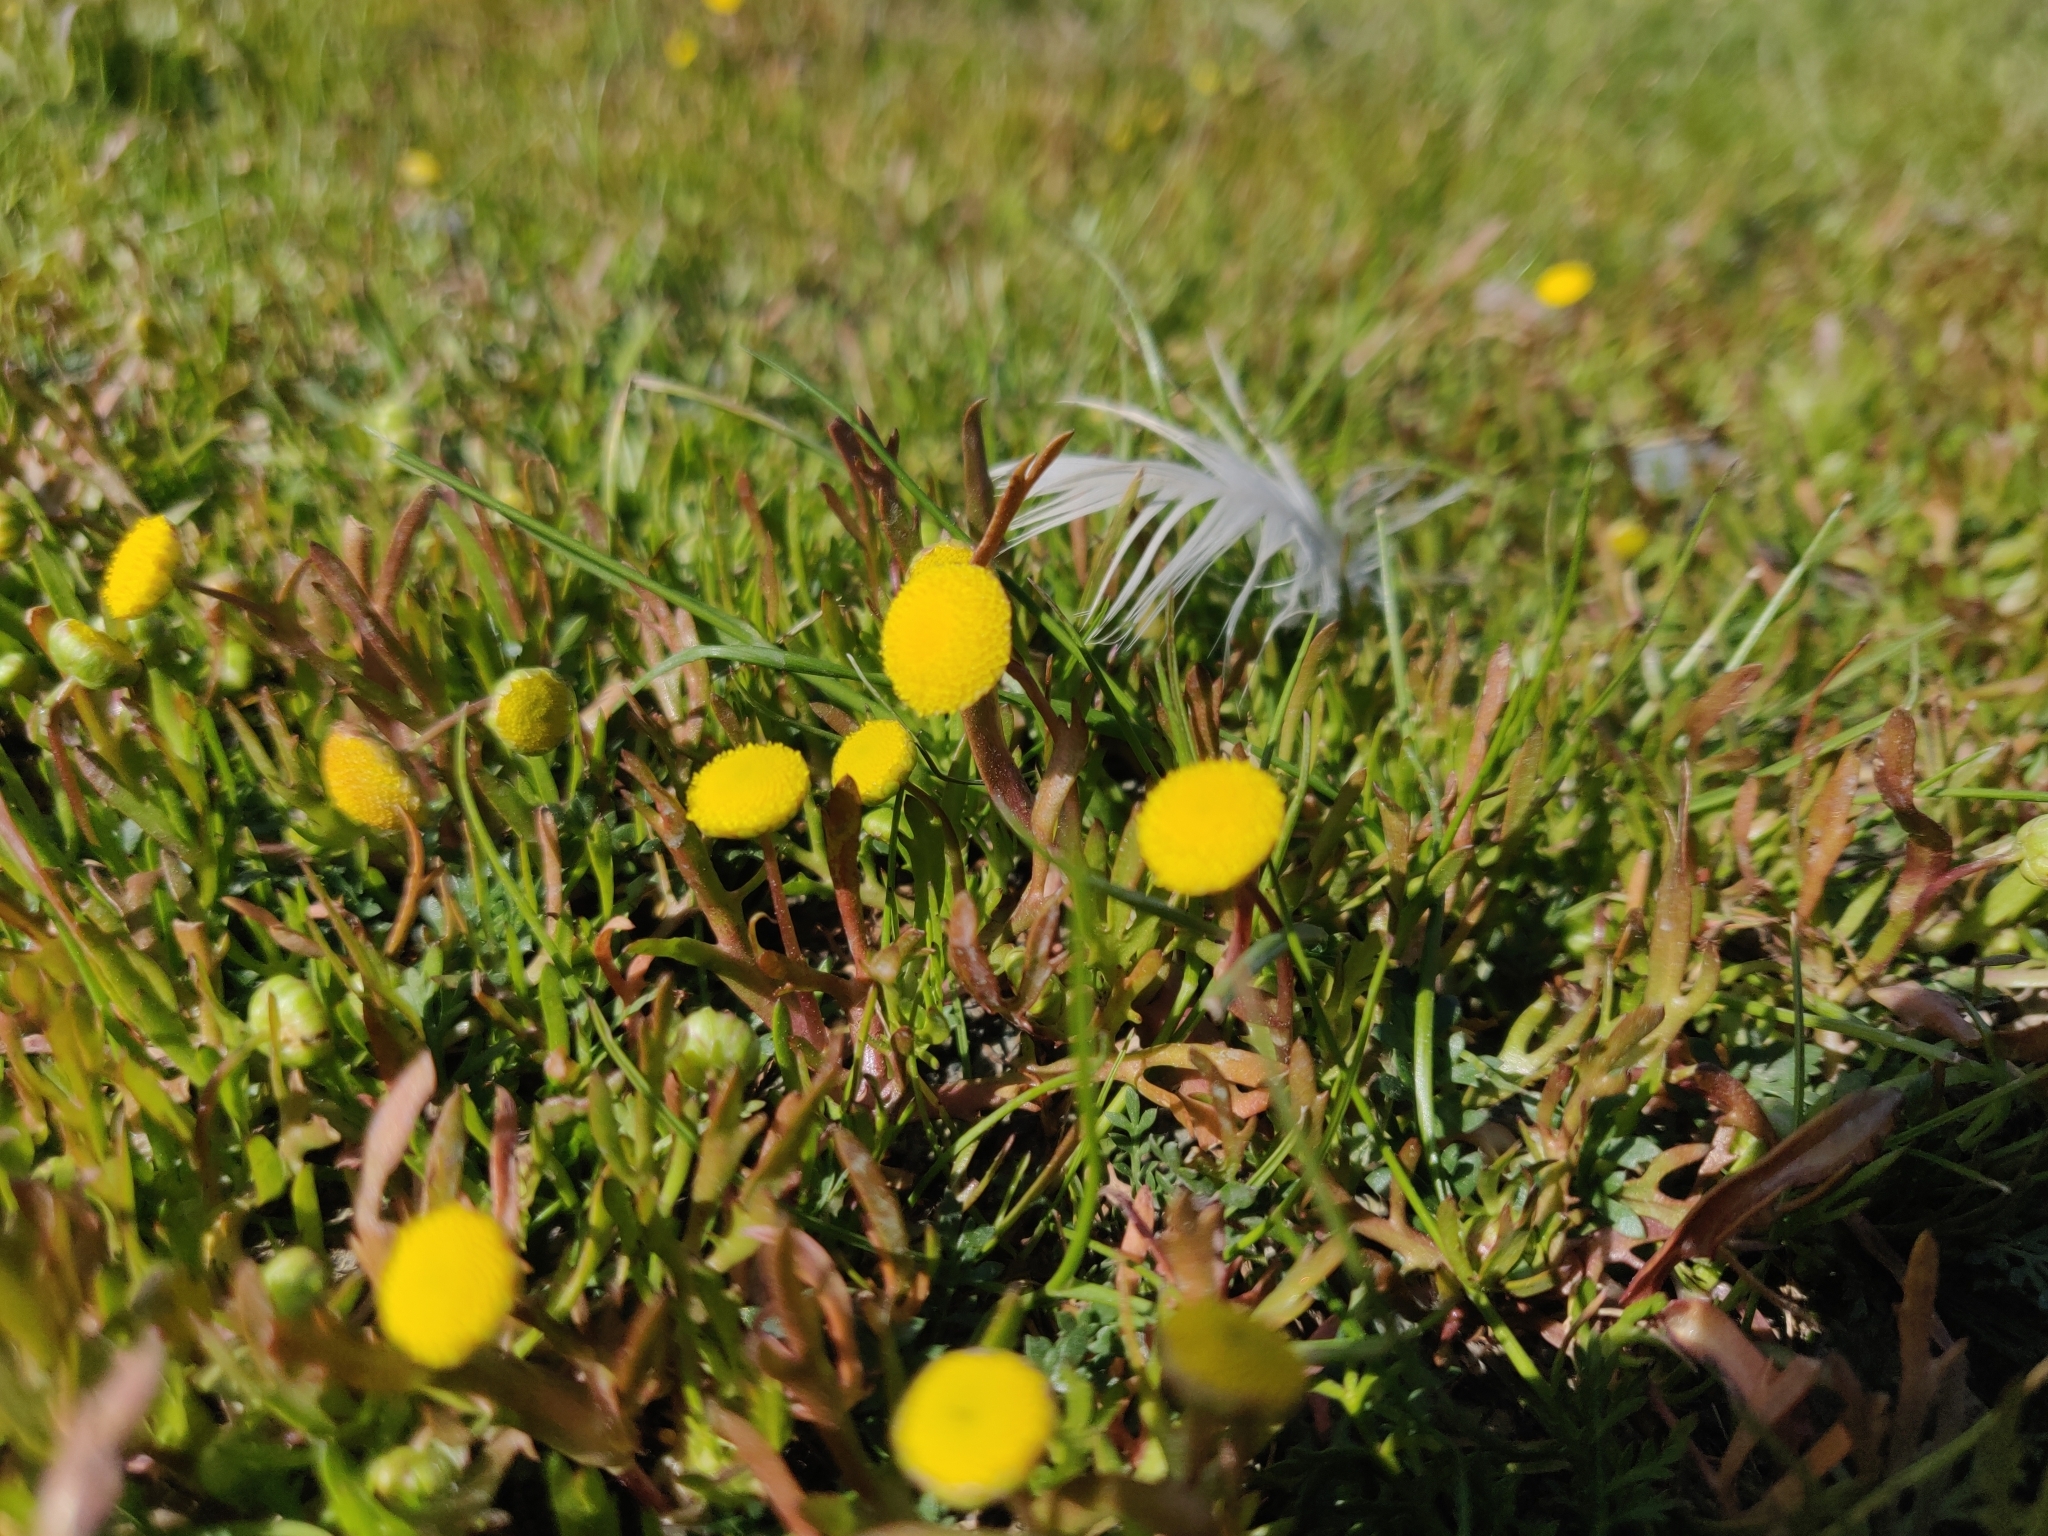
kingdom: Plantae
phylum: Tracheophyta
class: Magnoliopsida
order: Asterales
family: Asteraceae
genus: Cotula
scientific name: Cotula coronopifolia
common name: Buttonweed
